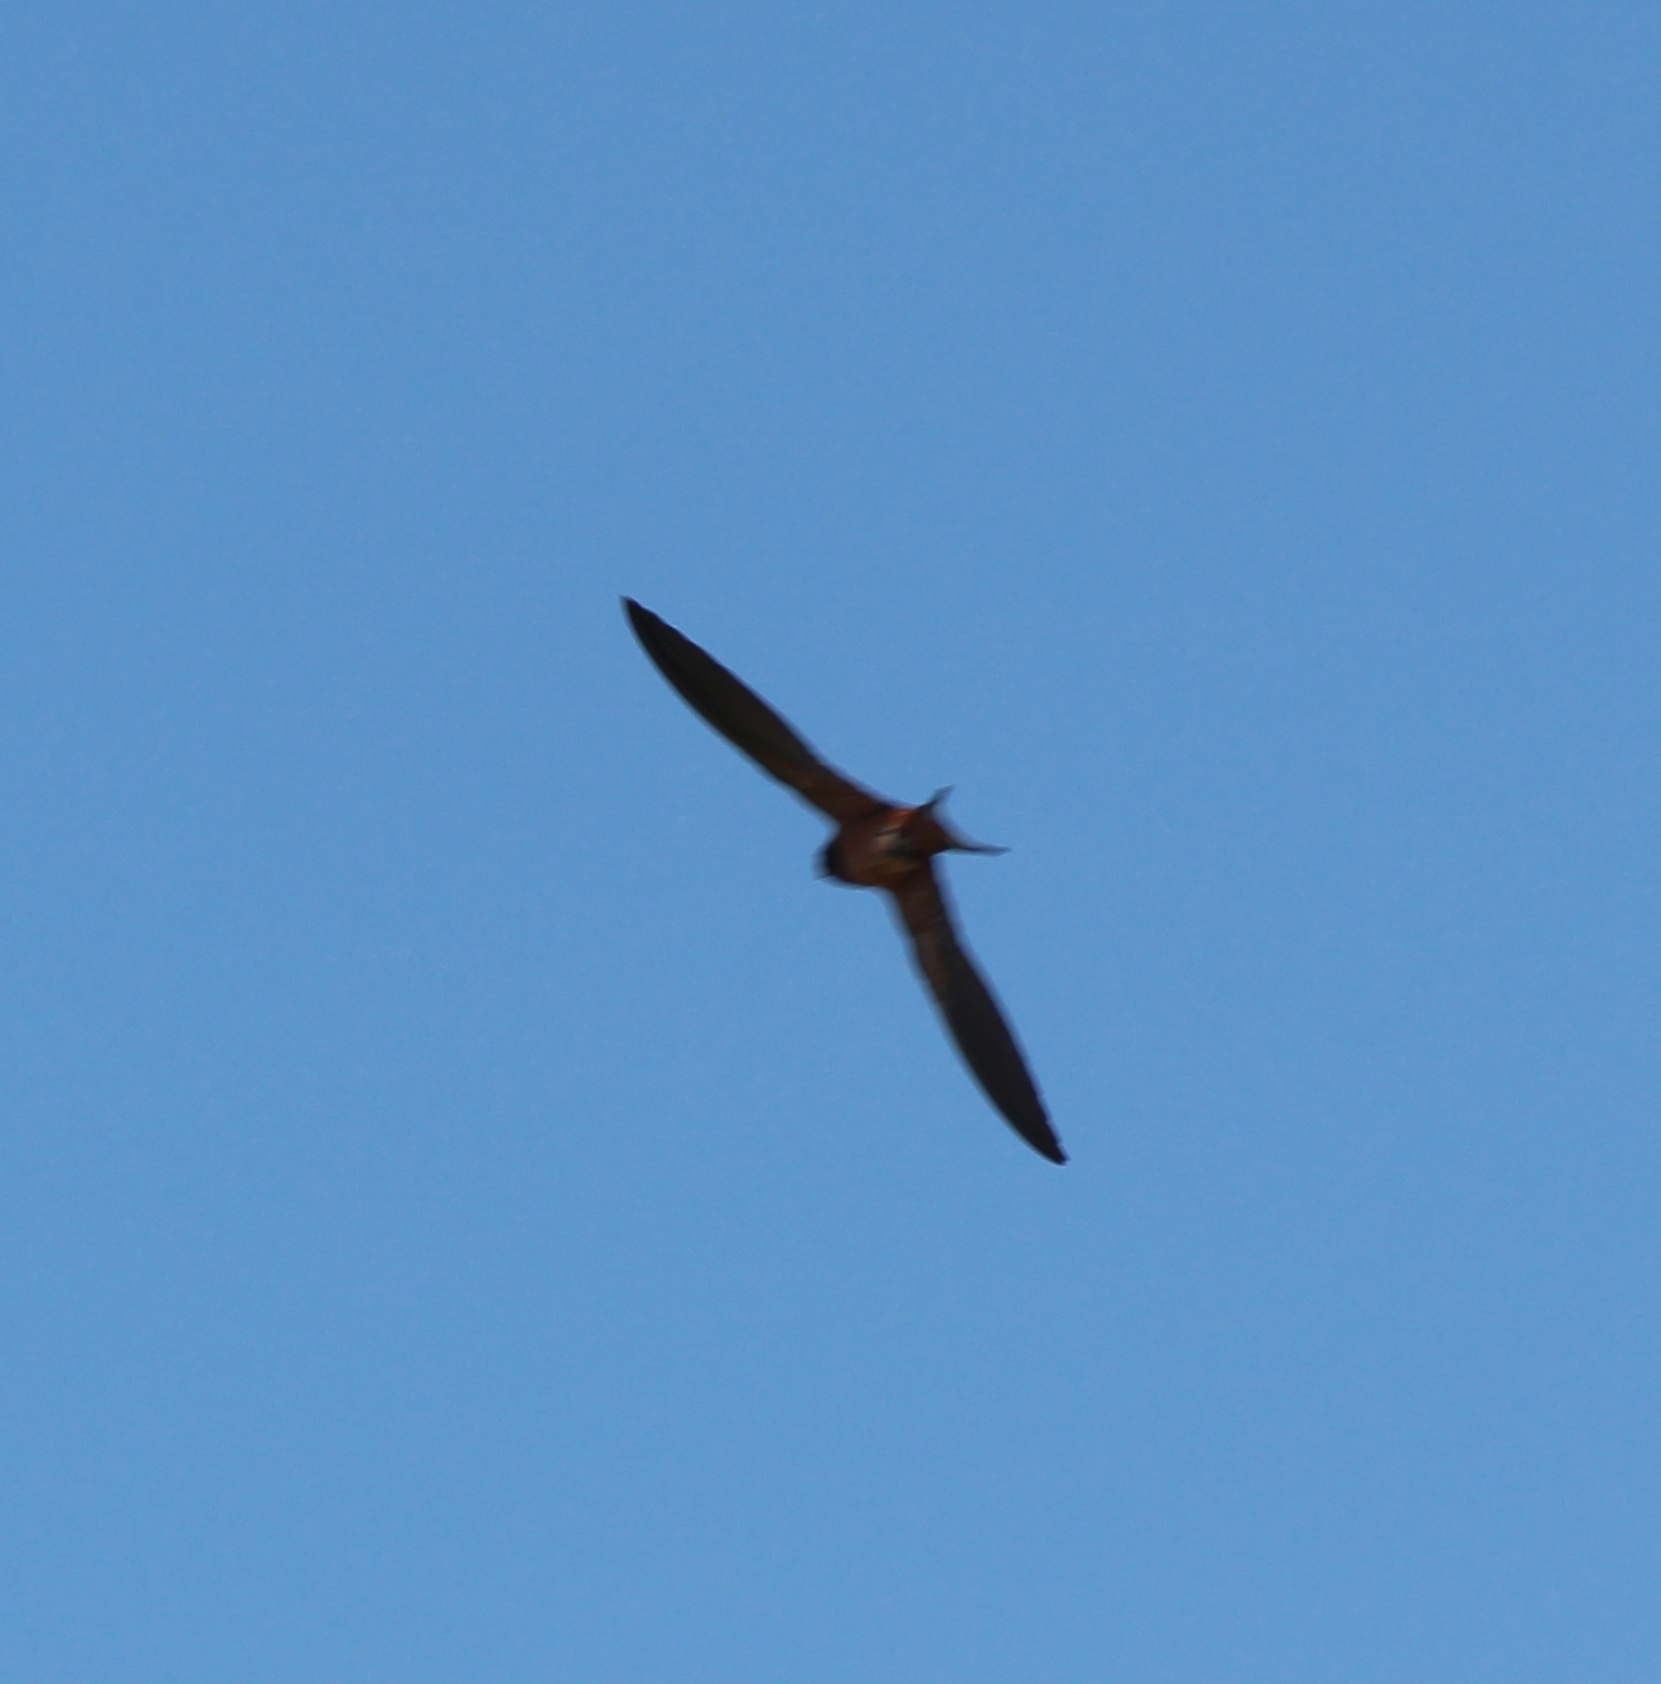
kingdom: Animalia
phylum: Chordata
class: Aves
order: Passeriformes
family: Hirundinidae
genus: Hirundo
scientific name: Hirundo rustica
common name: Barn swallow
